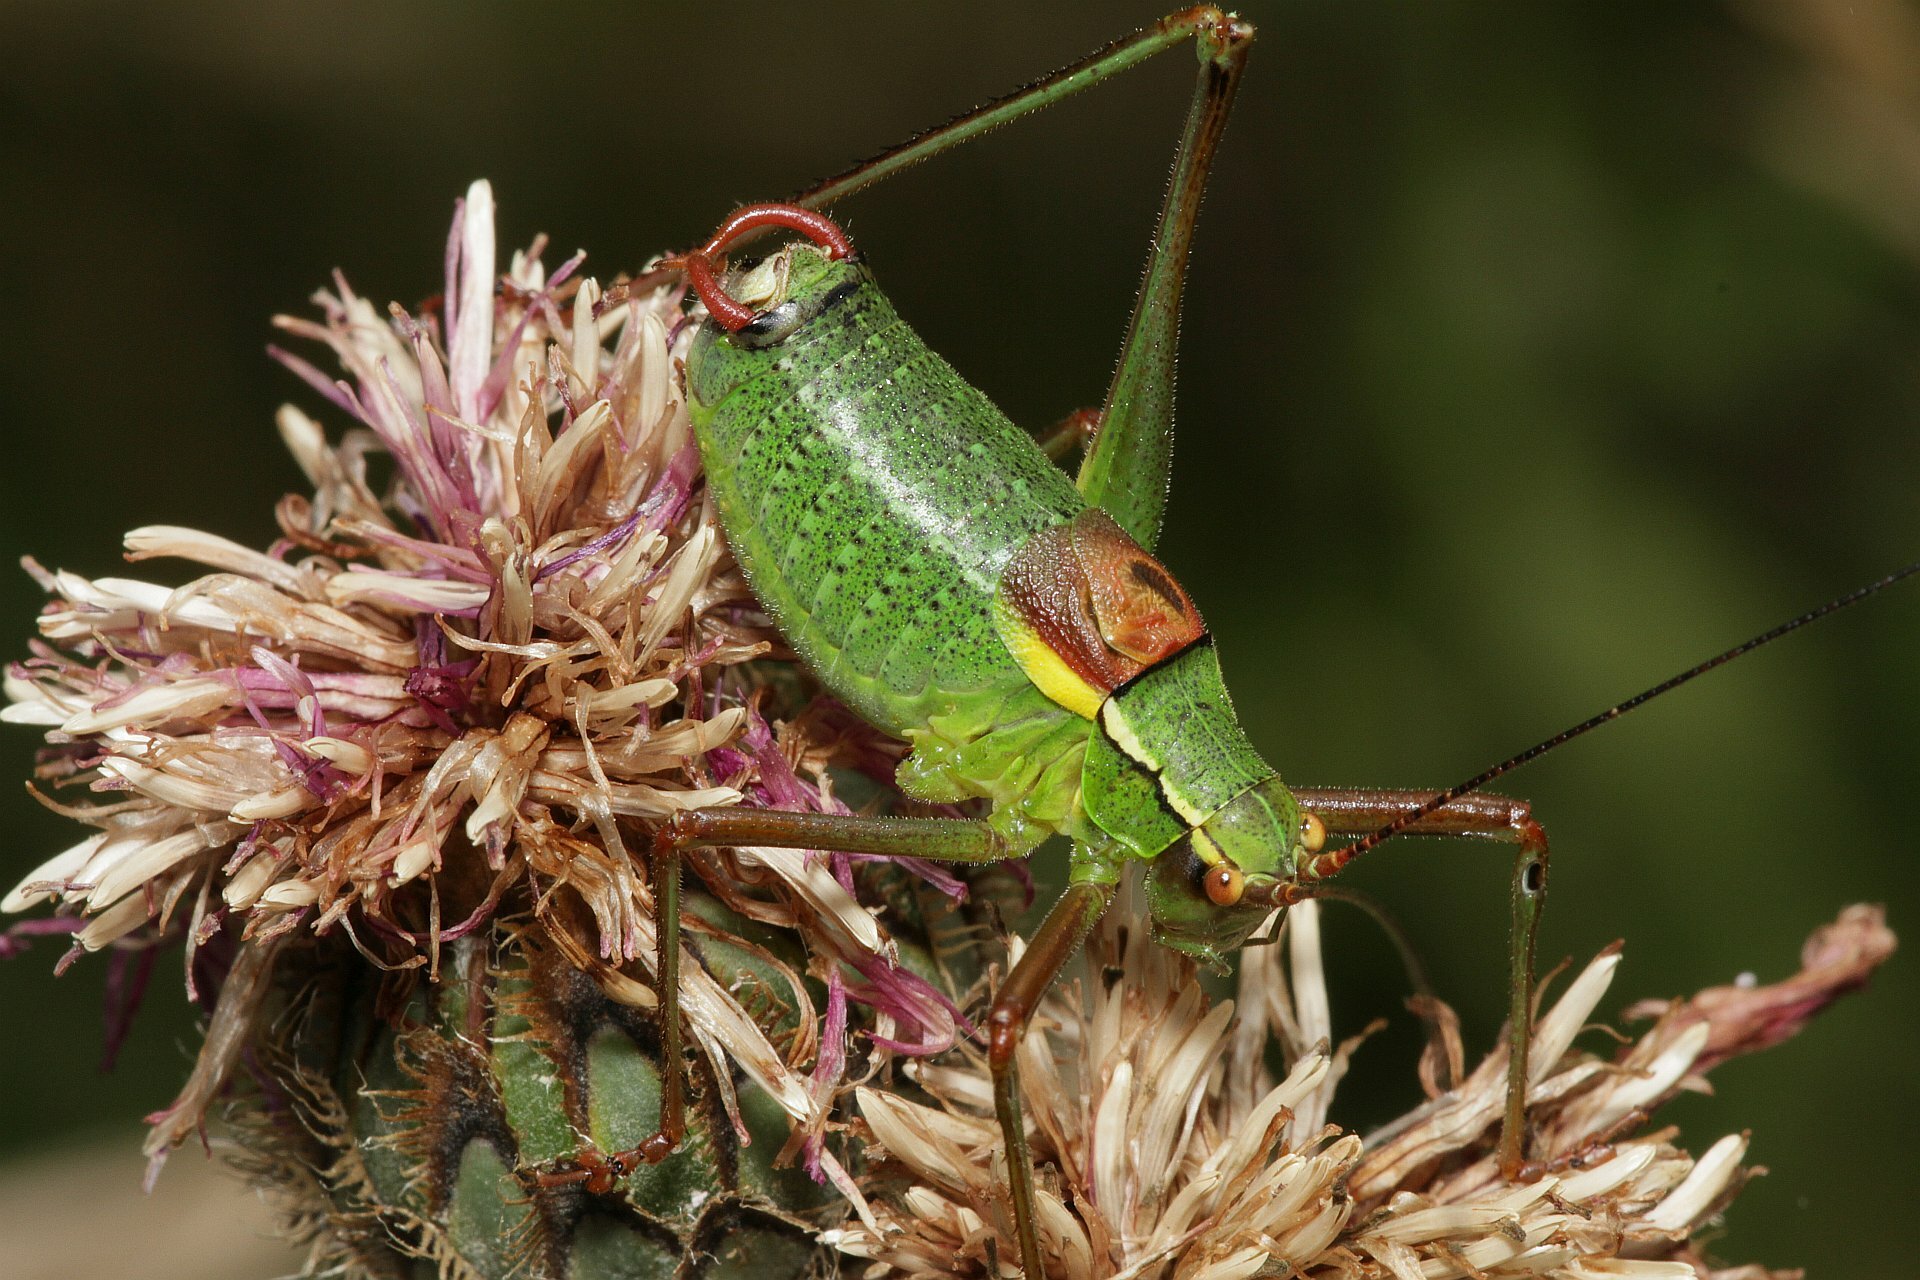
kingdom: Animalia
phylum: Arthropoda
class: Insecta
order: Orthoptera
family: Tettigoniidae
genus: Barbitistes
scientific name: Barbitistes serricauda
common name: Saw-tailed bush-cricket
